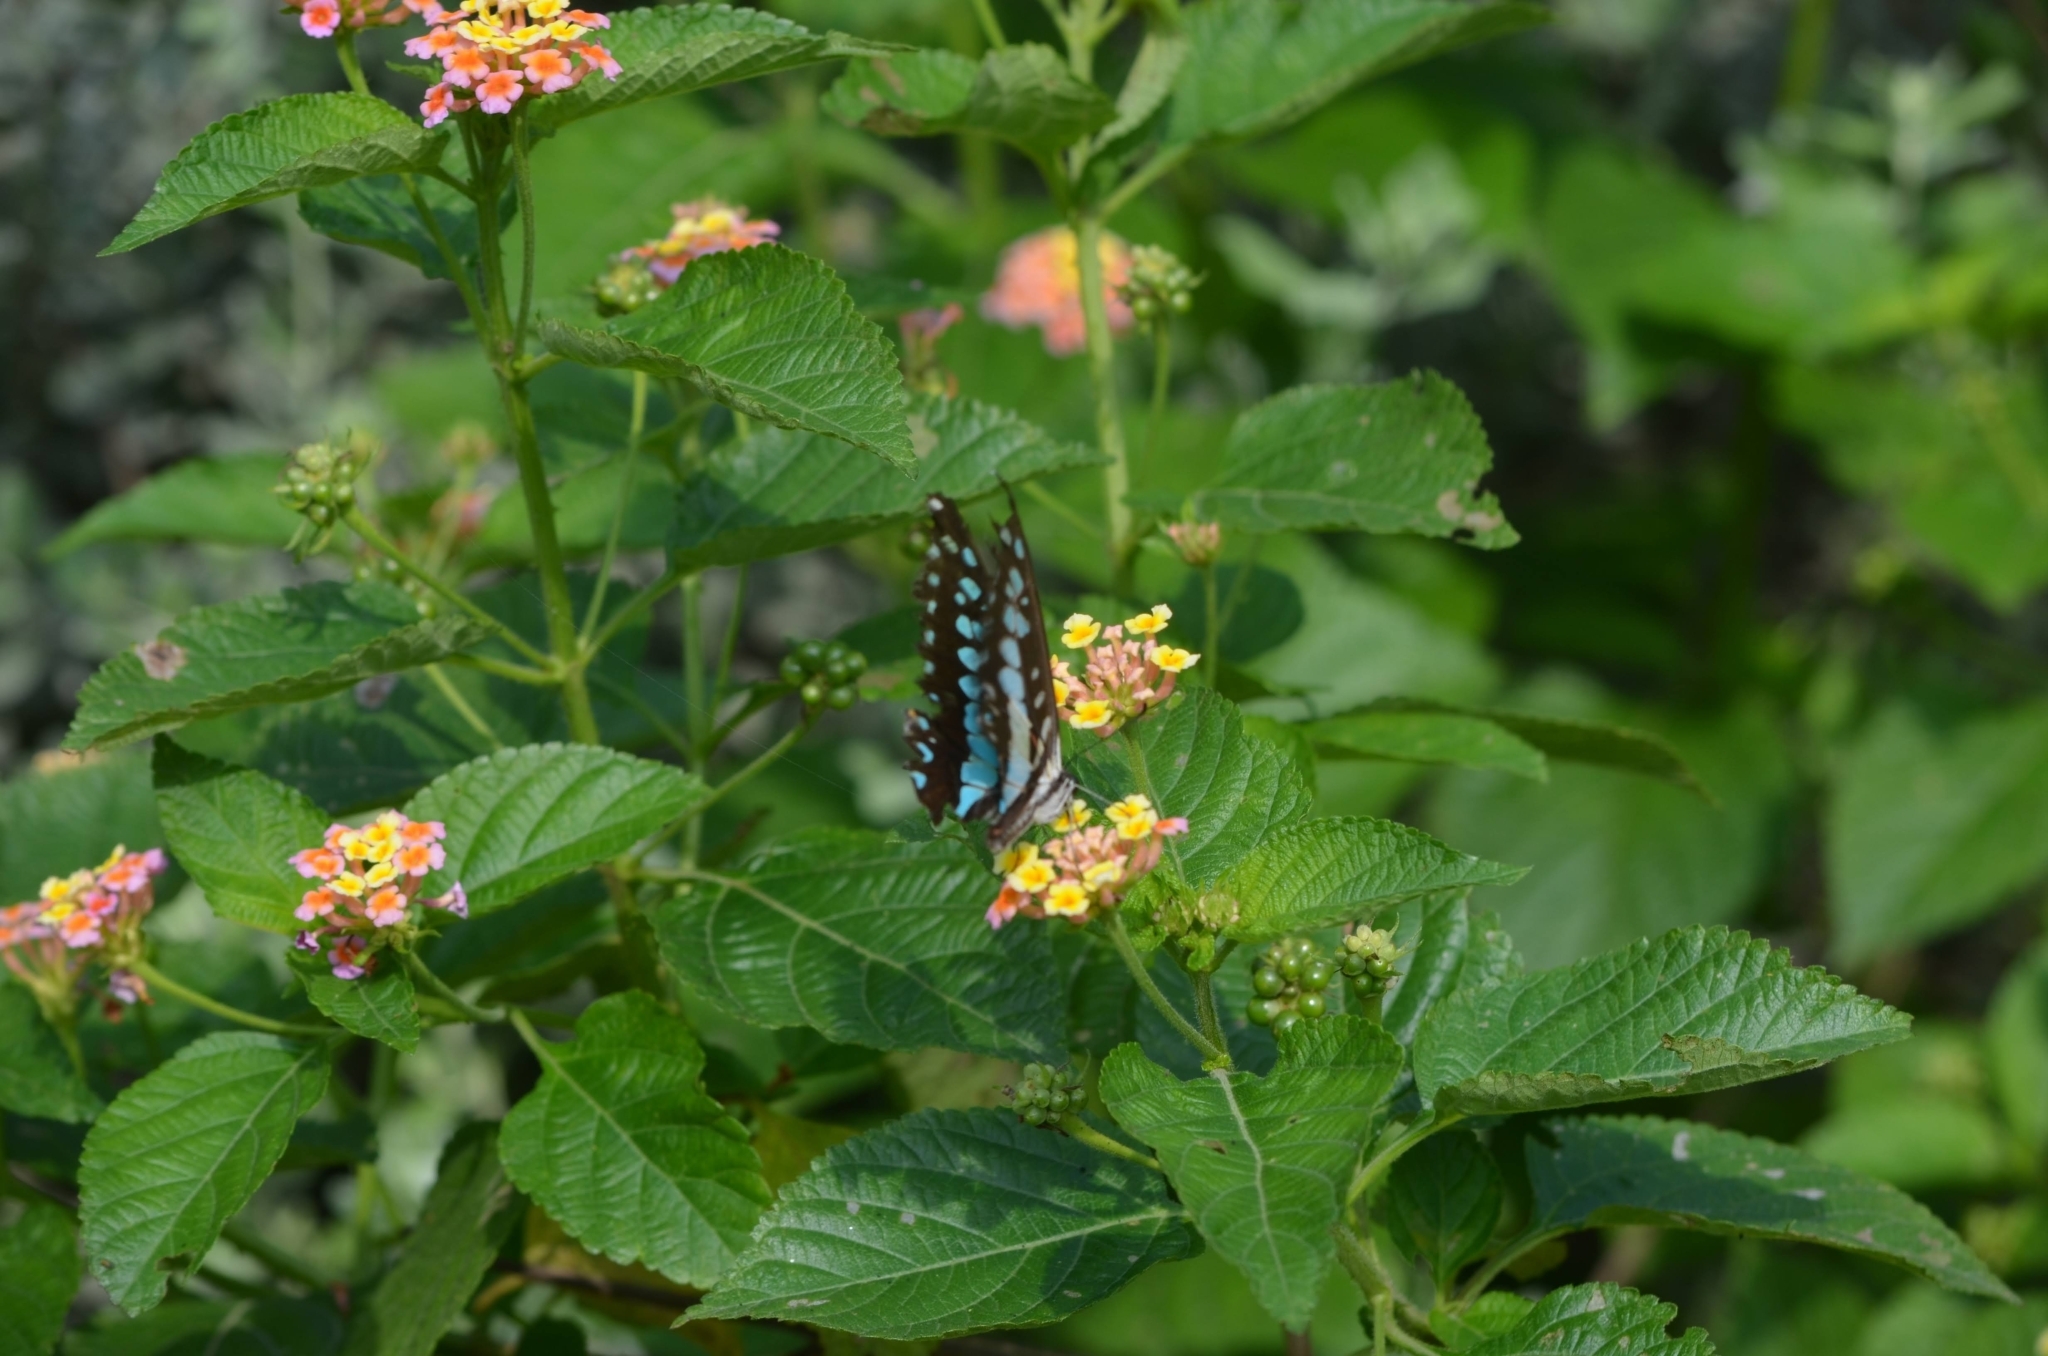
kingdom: Animalia
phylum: Arthropoda
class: Insecta
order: Lepidoptera
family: Papilionidae
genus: Graphium
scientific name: Graphium doson
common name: Common jay
